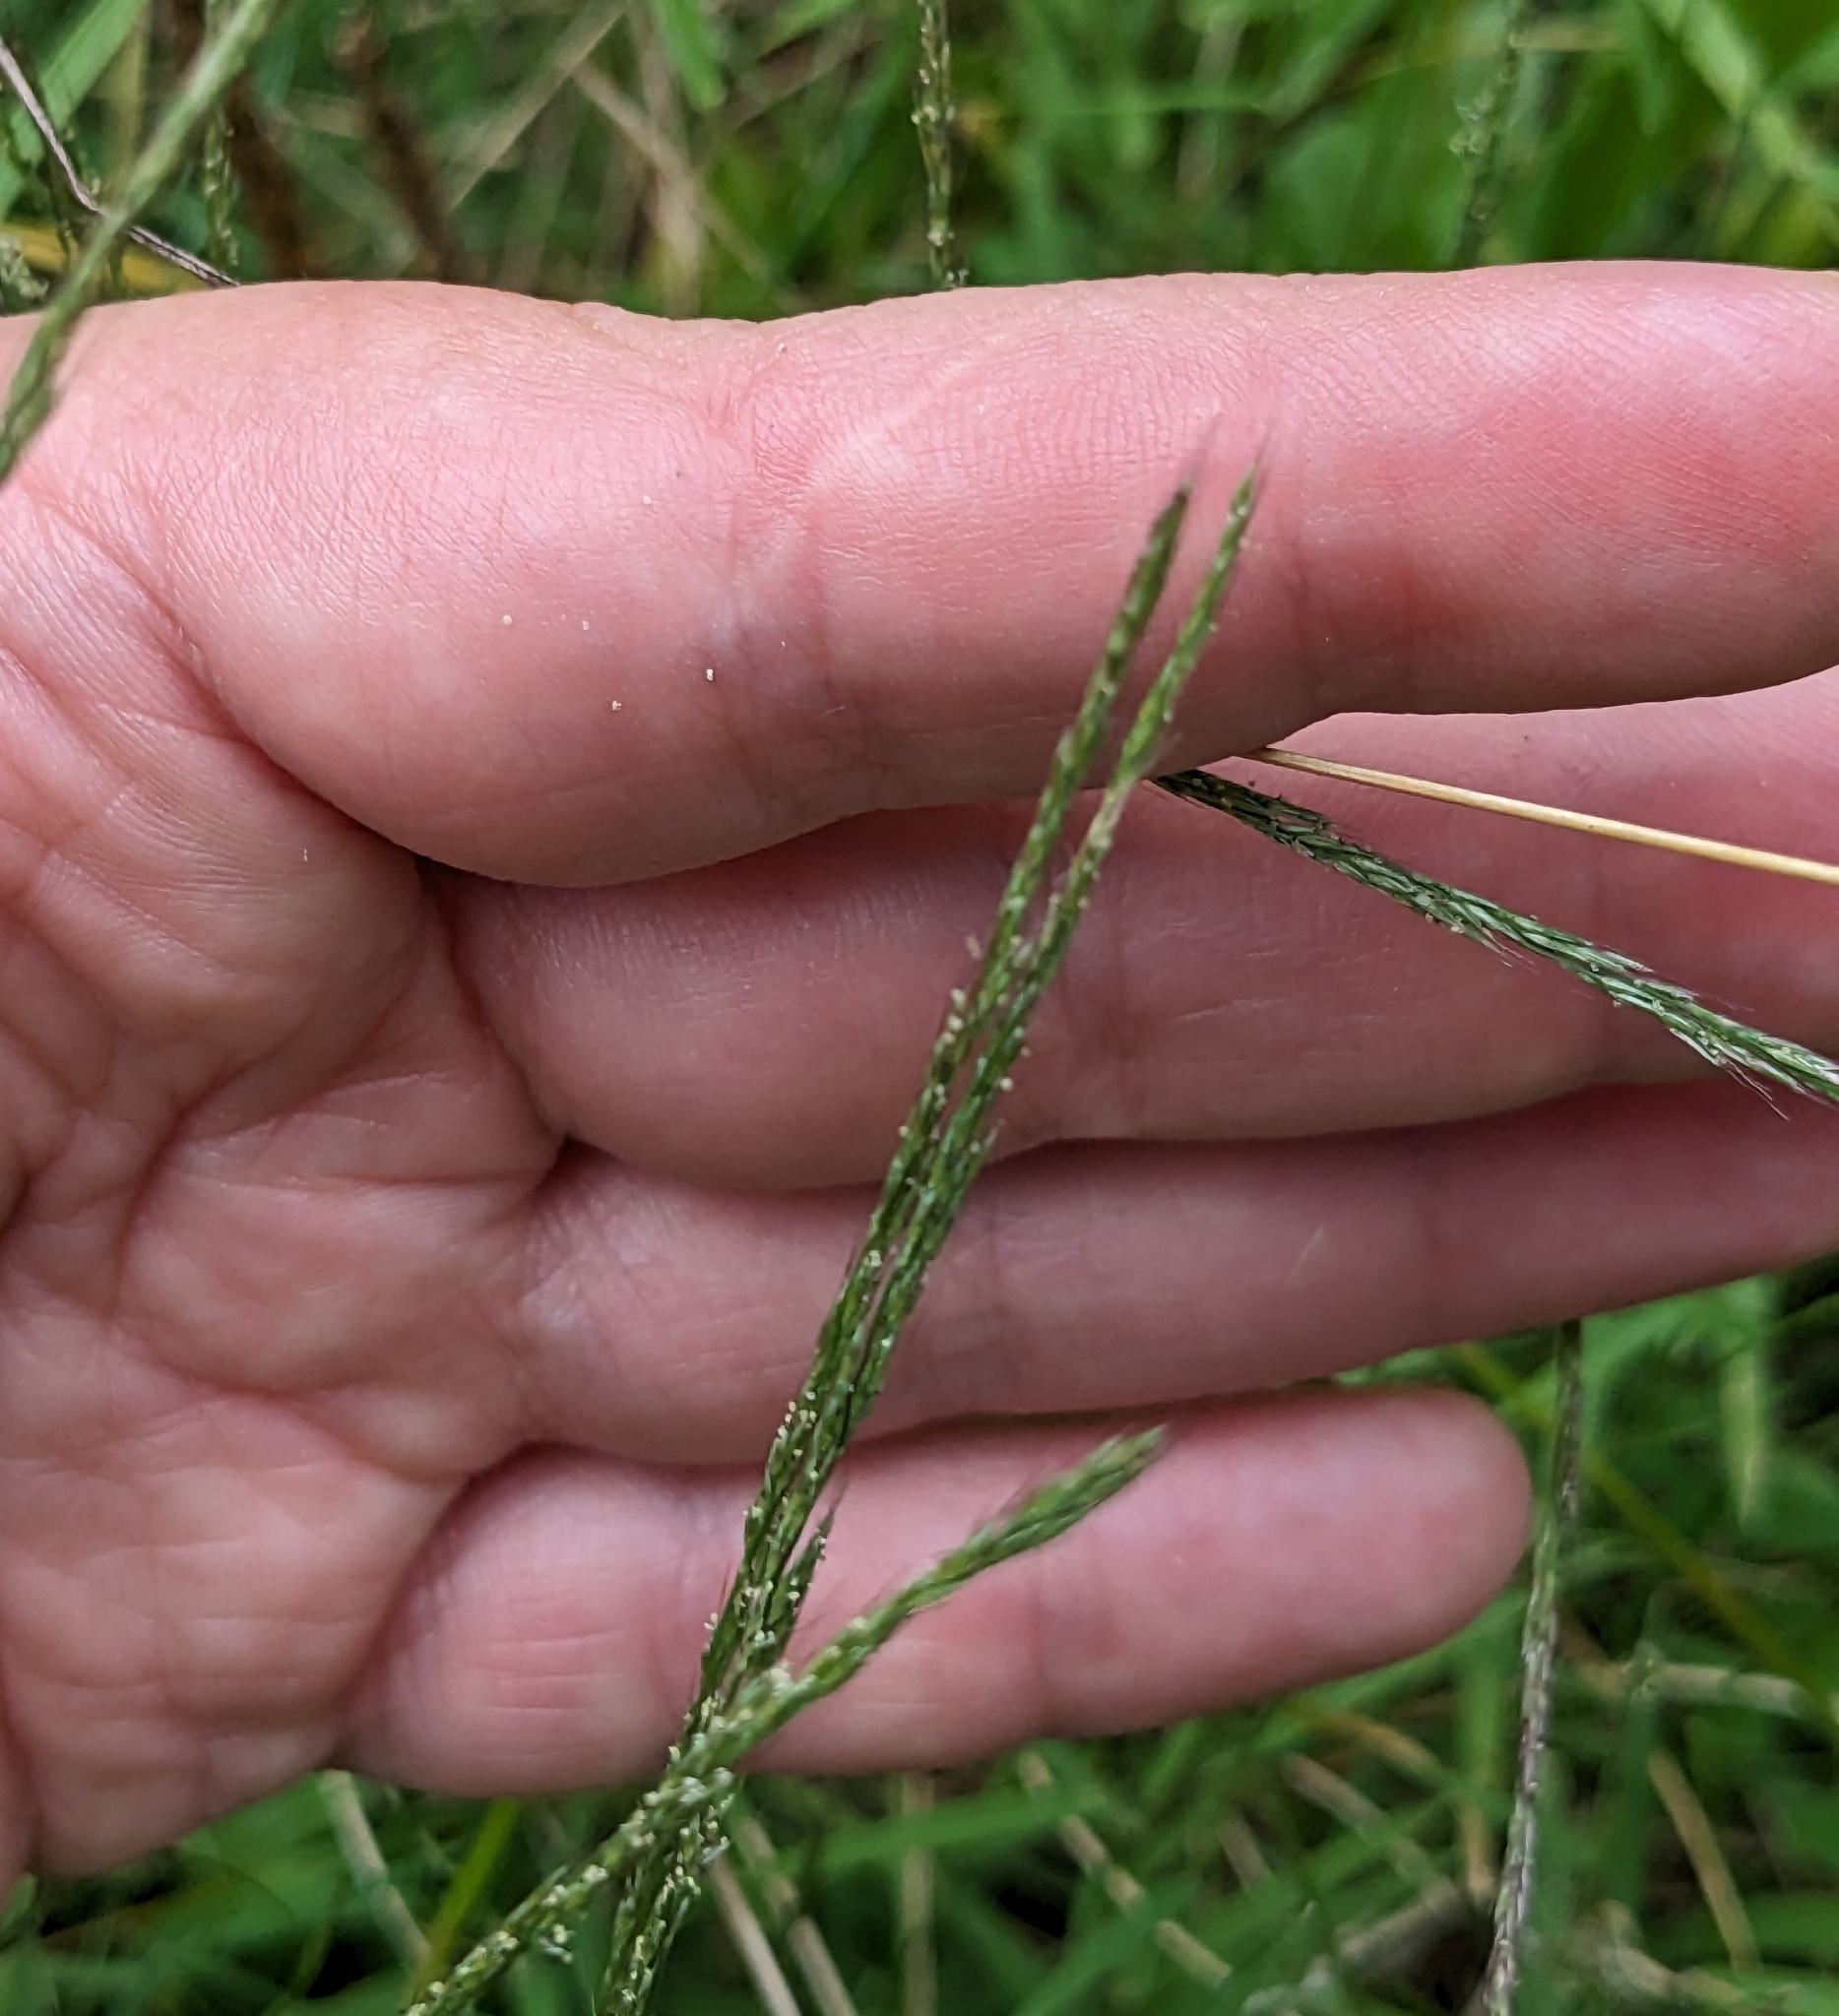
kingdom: Plantae
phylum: Tracheophyta
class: Liliopsida
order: Poales
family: Poaceae
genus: Muhlenbergia
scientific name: Muhlenbergia schreberi
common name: Nimblewill
